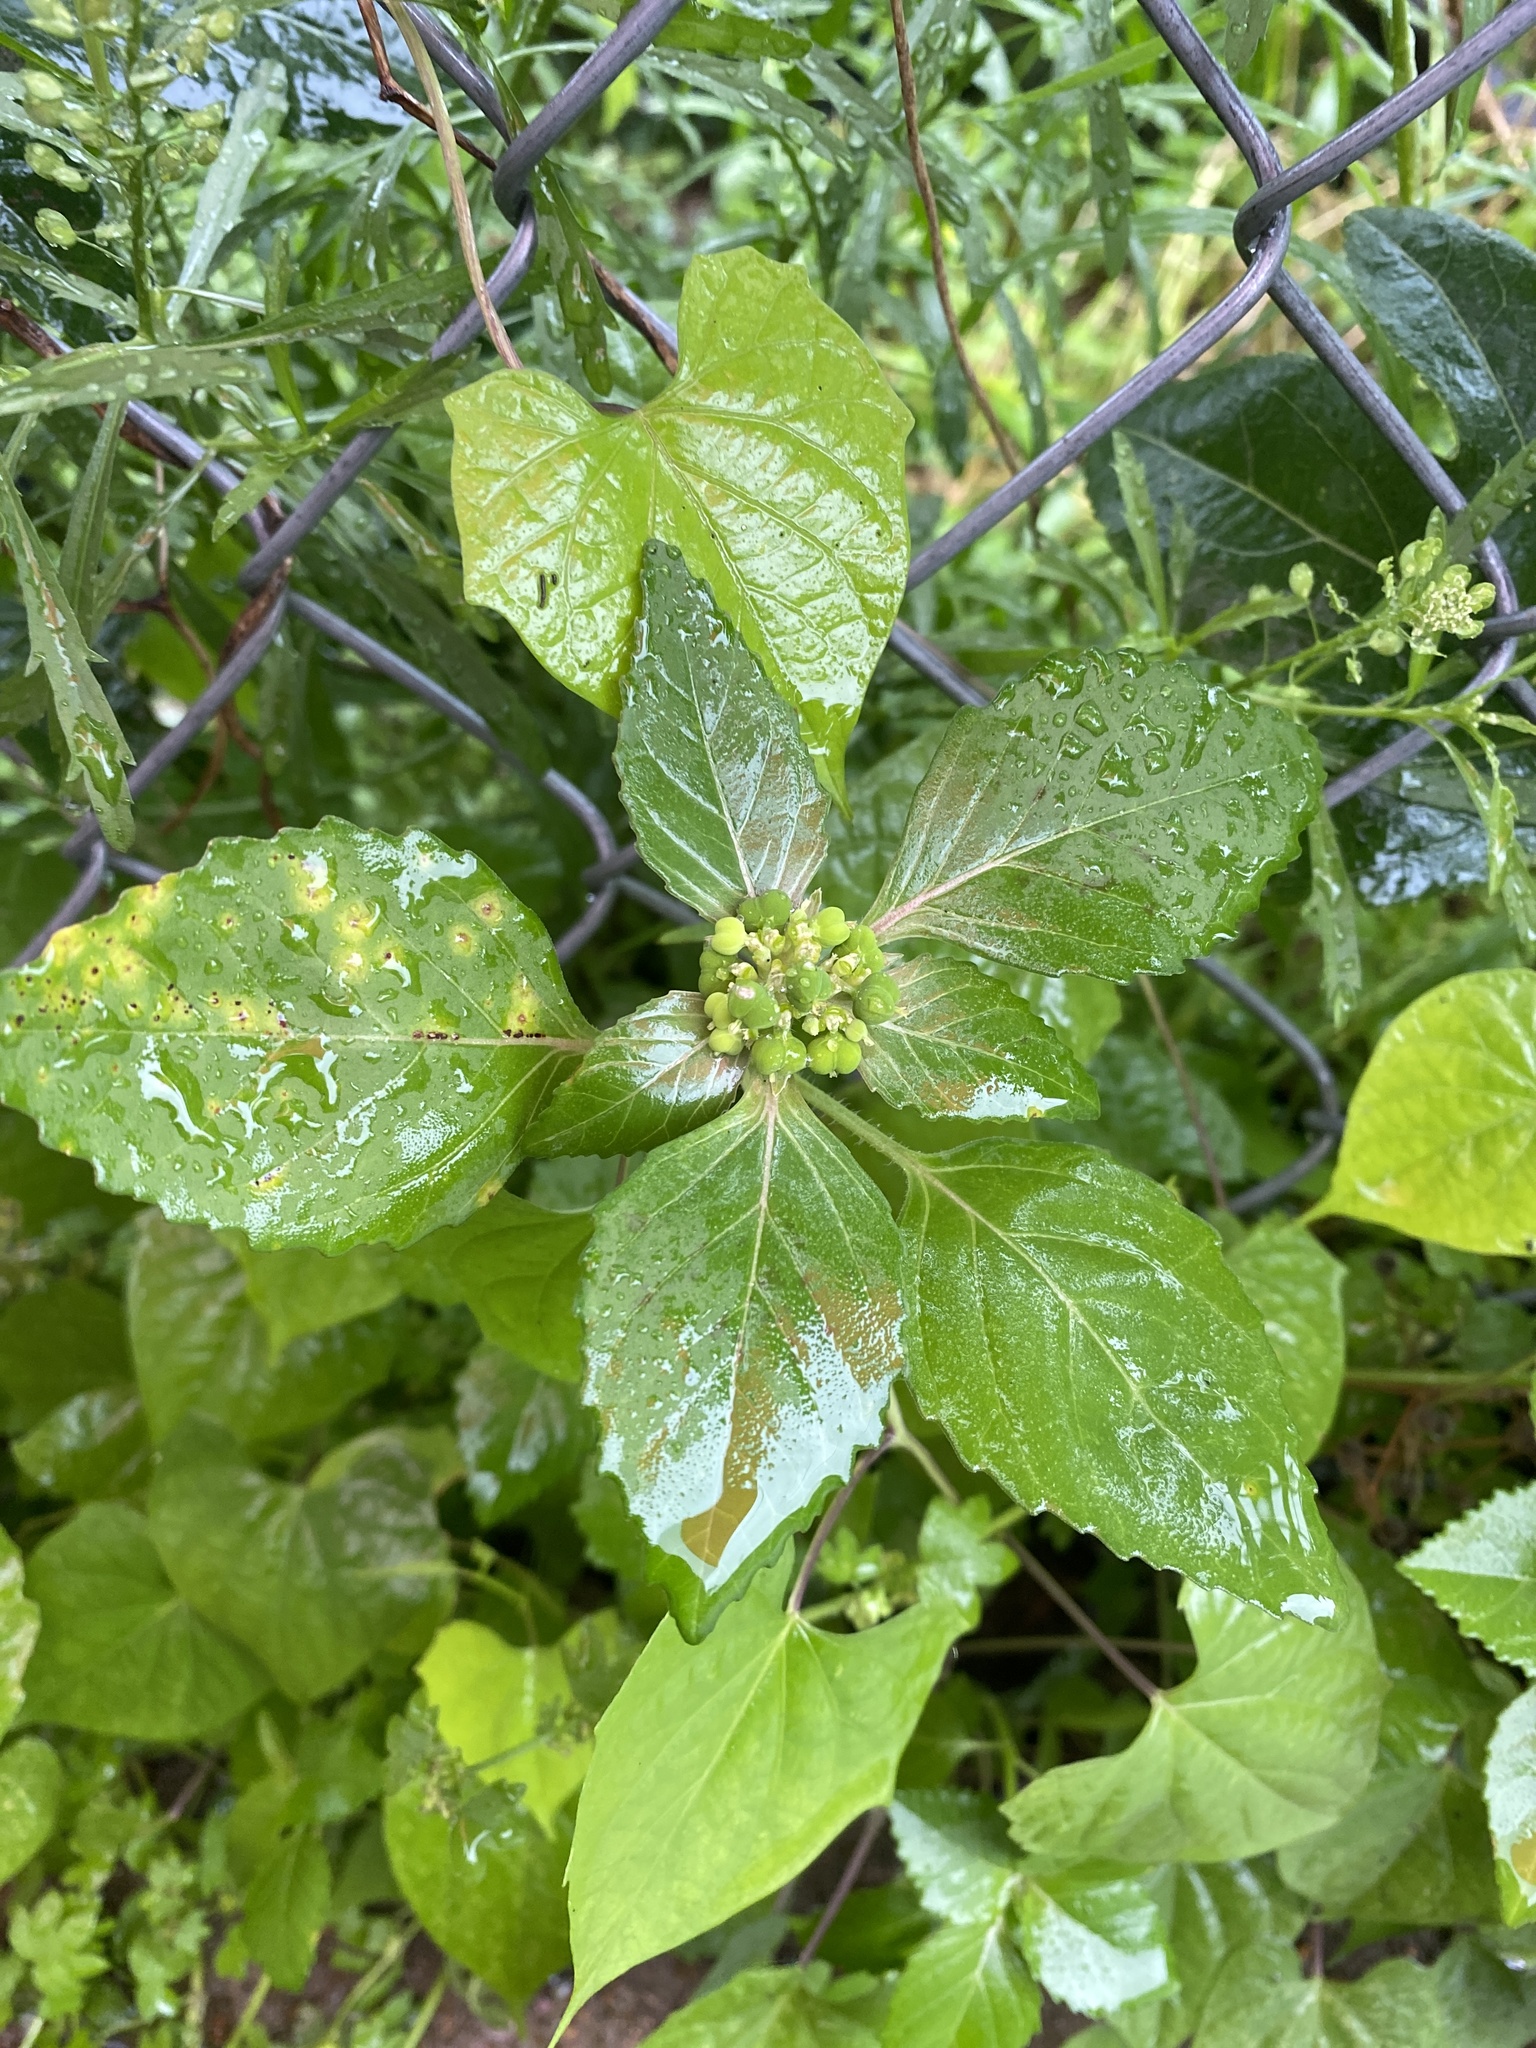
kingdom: Plantae
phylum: Tracheophyta
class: Magnoliopsida
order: Malpighiales
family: Euphorbiaceae
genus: Euphorbia
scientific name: Euphorbia dentata
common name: Dentate spurge
